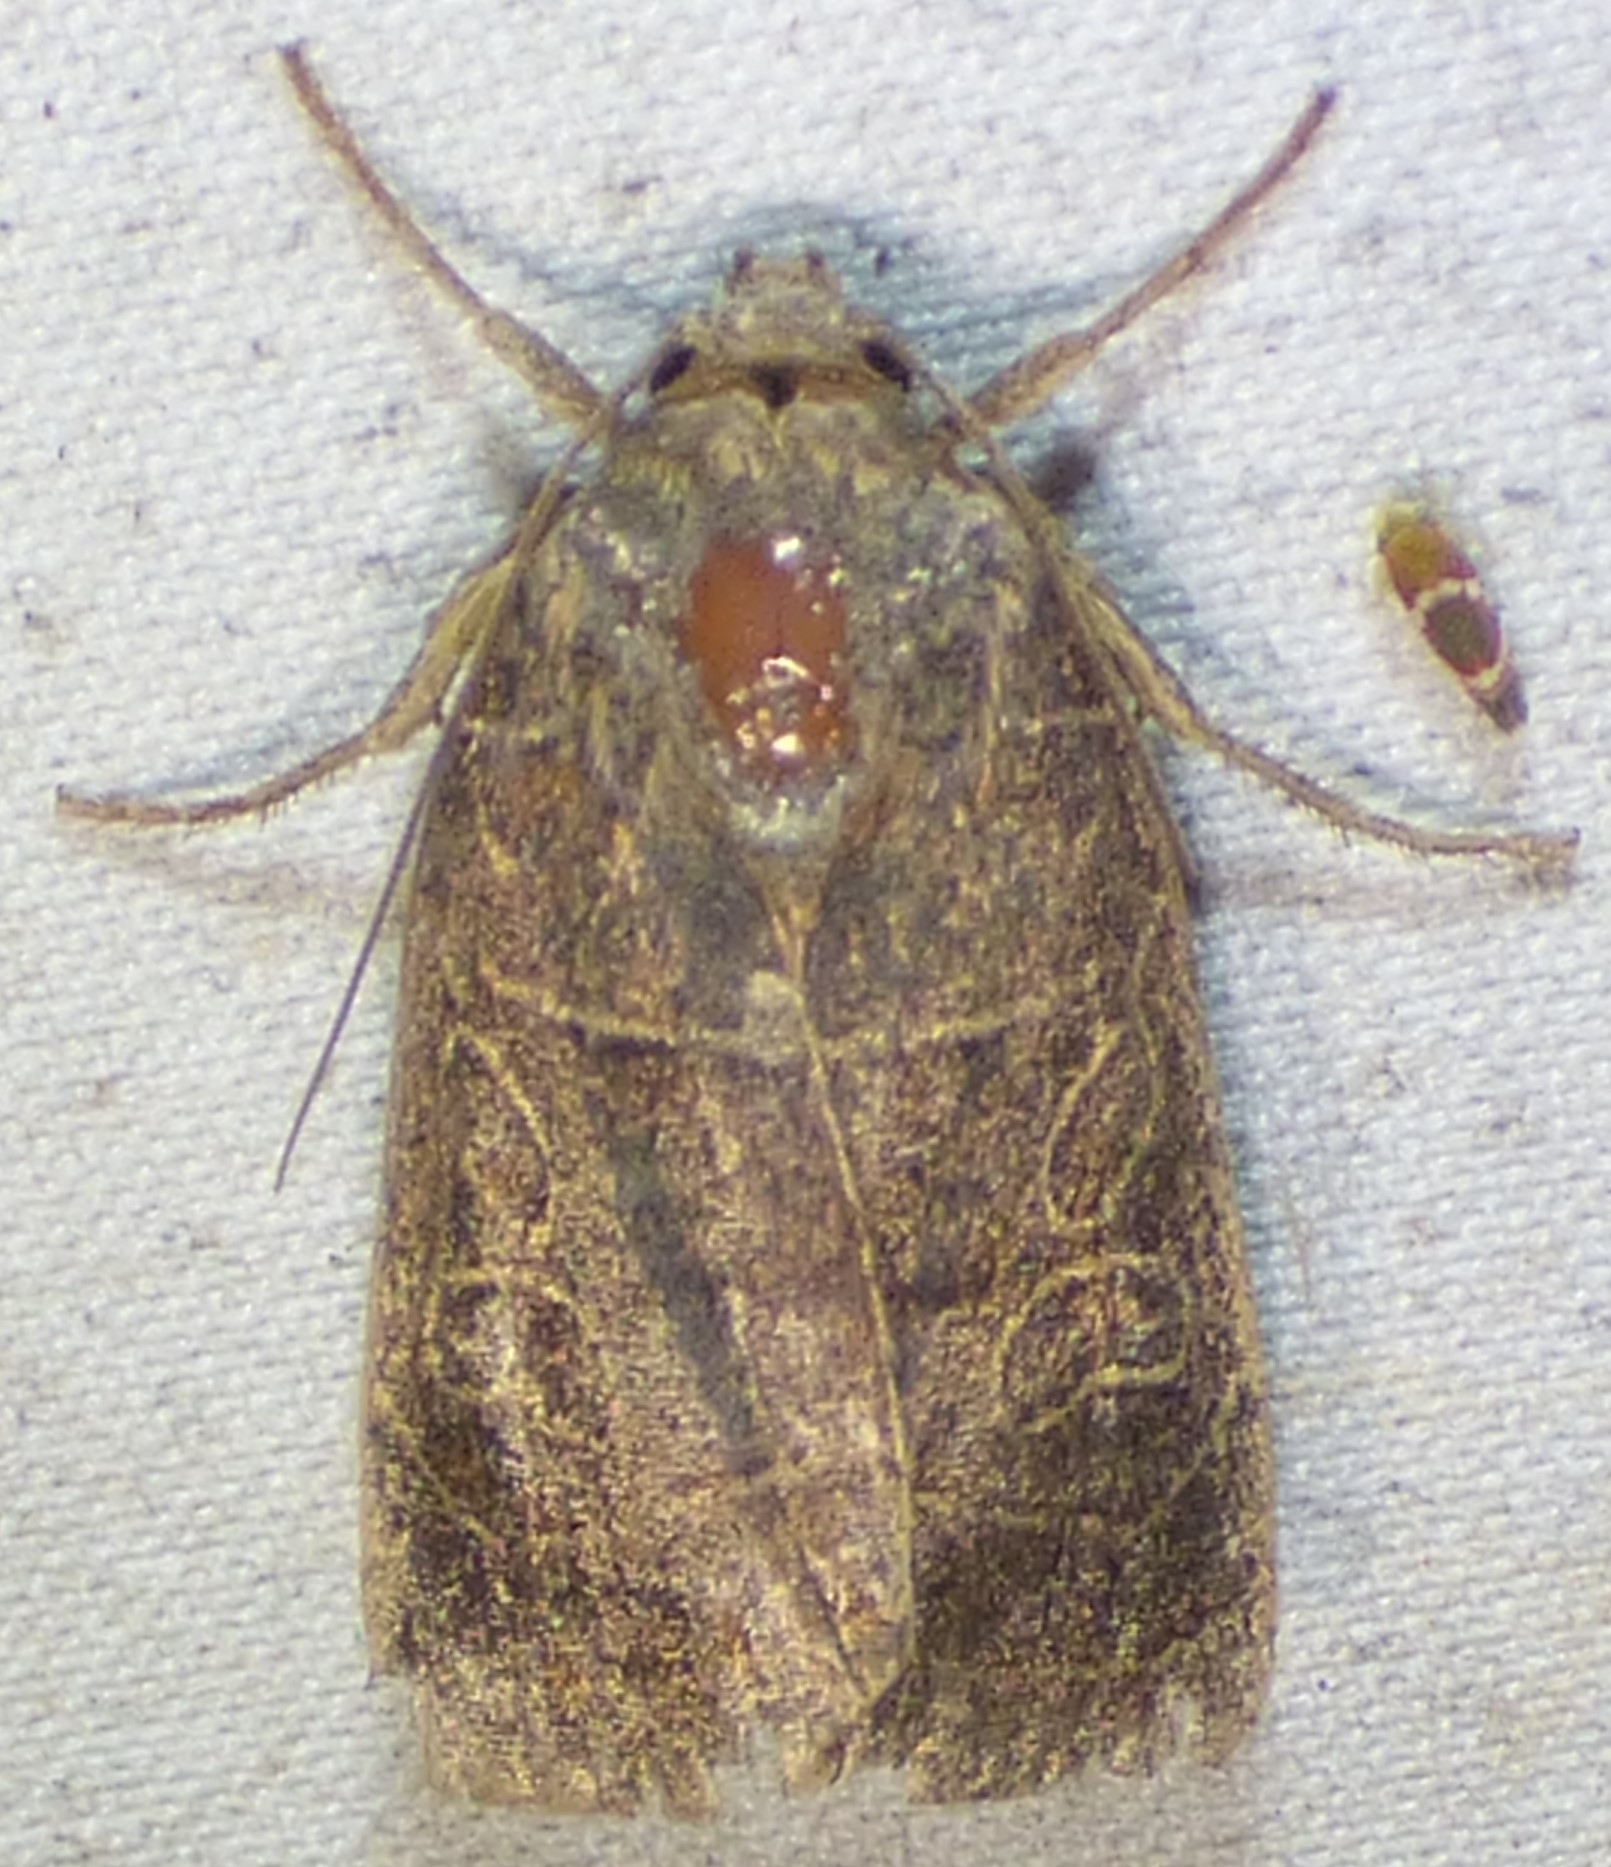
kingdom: Animalia
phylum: Arthropoda
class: Insecta
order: Lepidoptera
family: Noctuidae
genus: Orthodes
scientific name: Orthodes majuscula
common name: Rustic quaker
